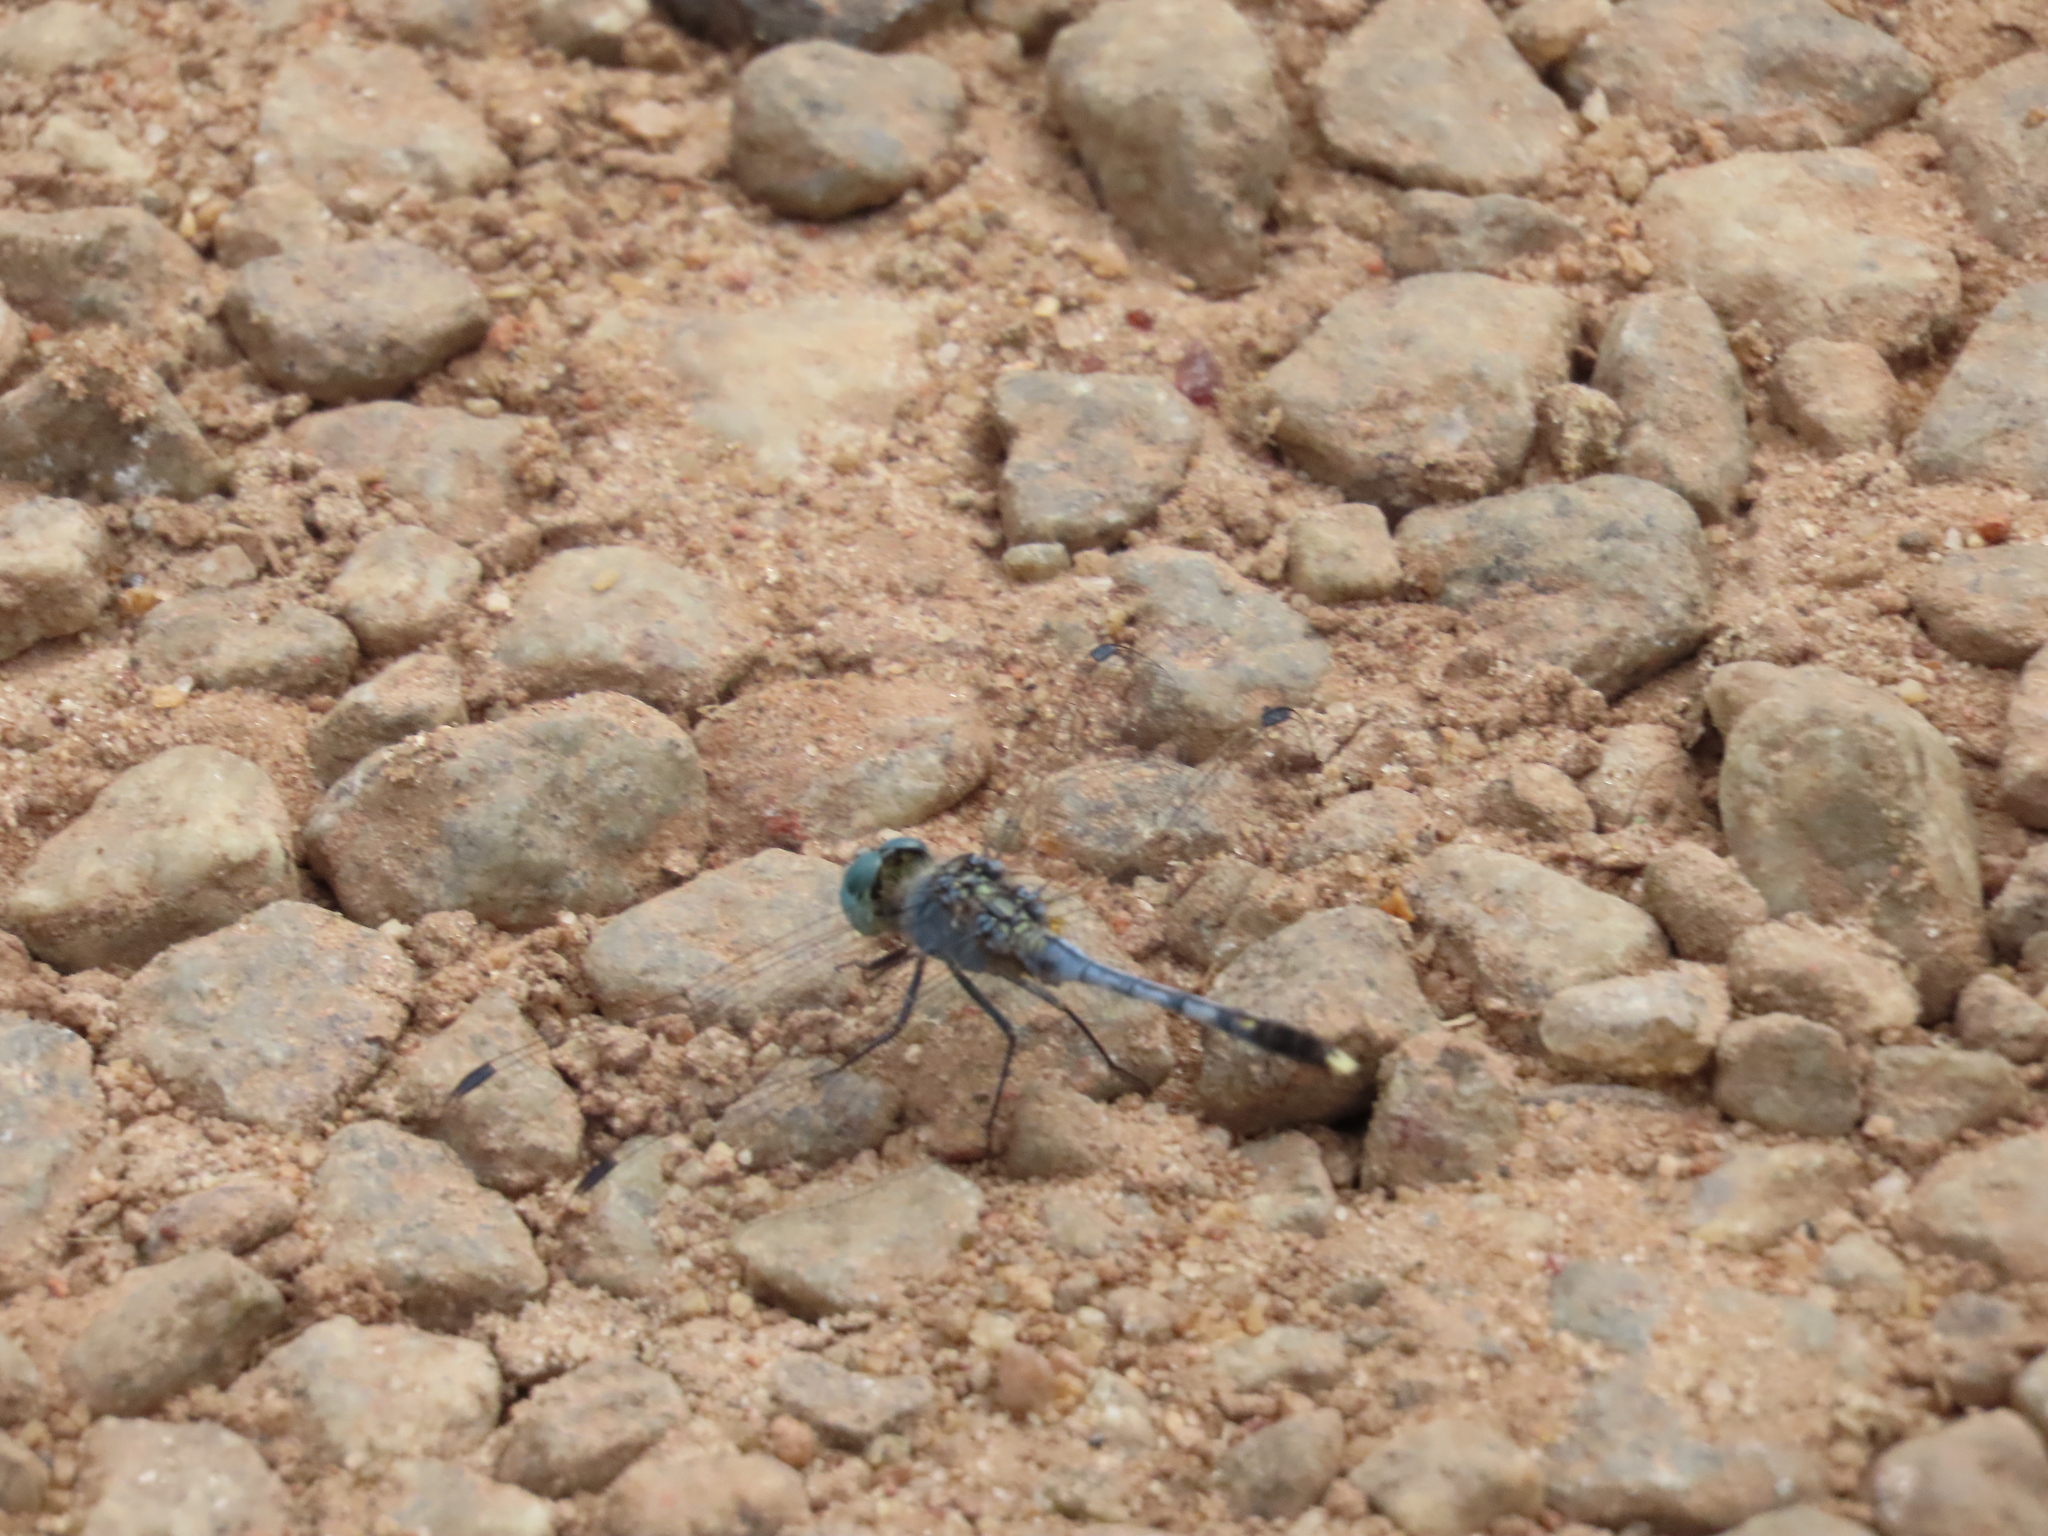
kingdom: Animalia
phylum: Arthropoda
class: Insecta
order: Odonata
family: Libellulidae
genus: Diplacodes
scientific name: Diplacodes trivialis
